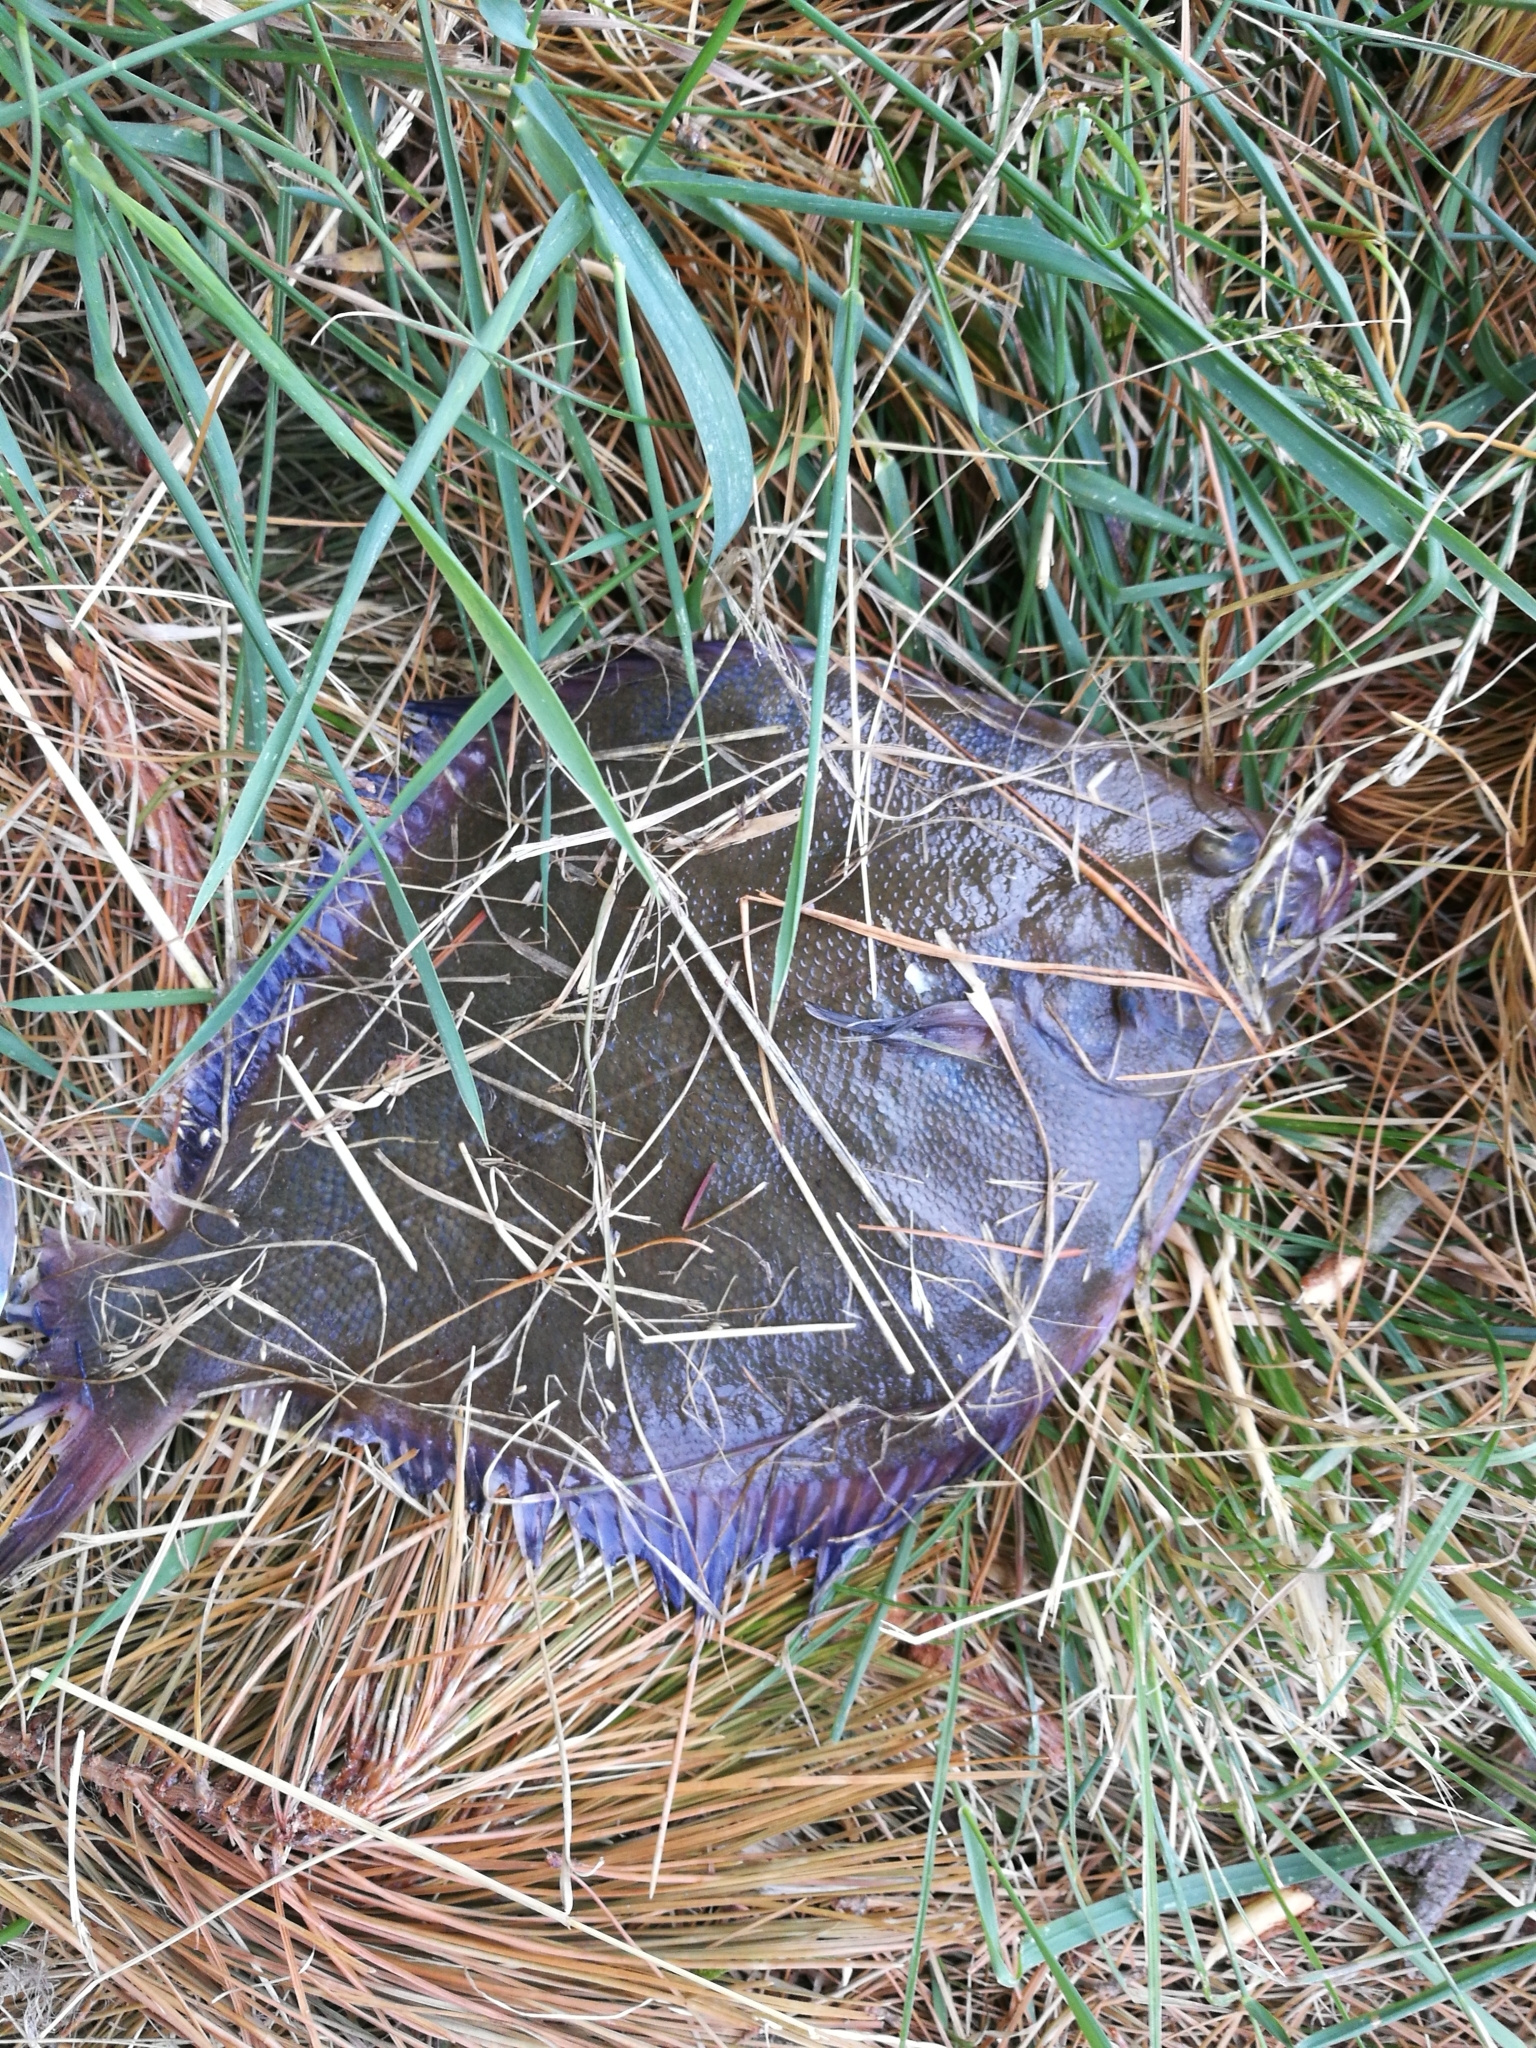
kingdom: Animalia
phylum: Chordata
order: Pleuronectiformes
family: Pleuronectidae
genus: Rhombosolea
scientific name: Rhombosolea plebeia
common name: Dab
